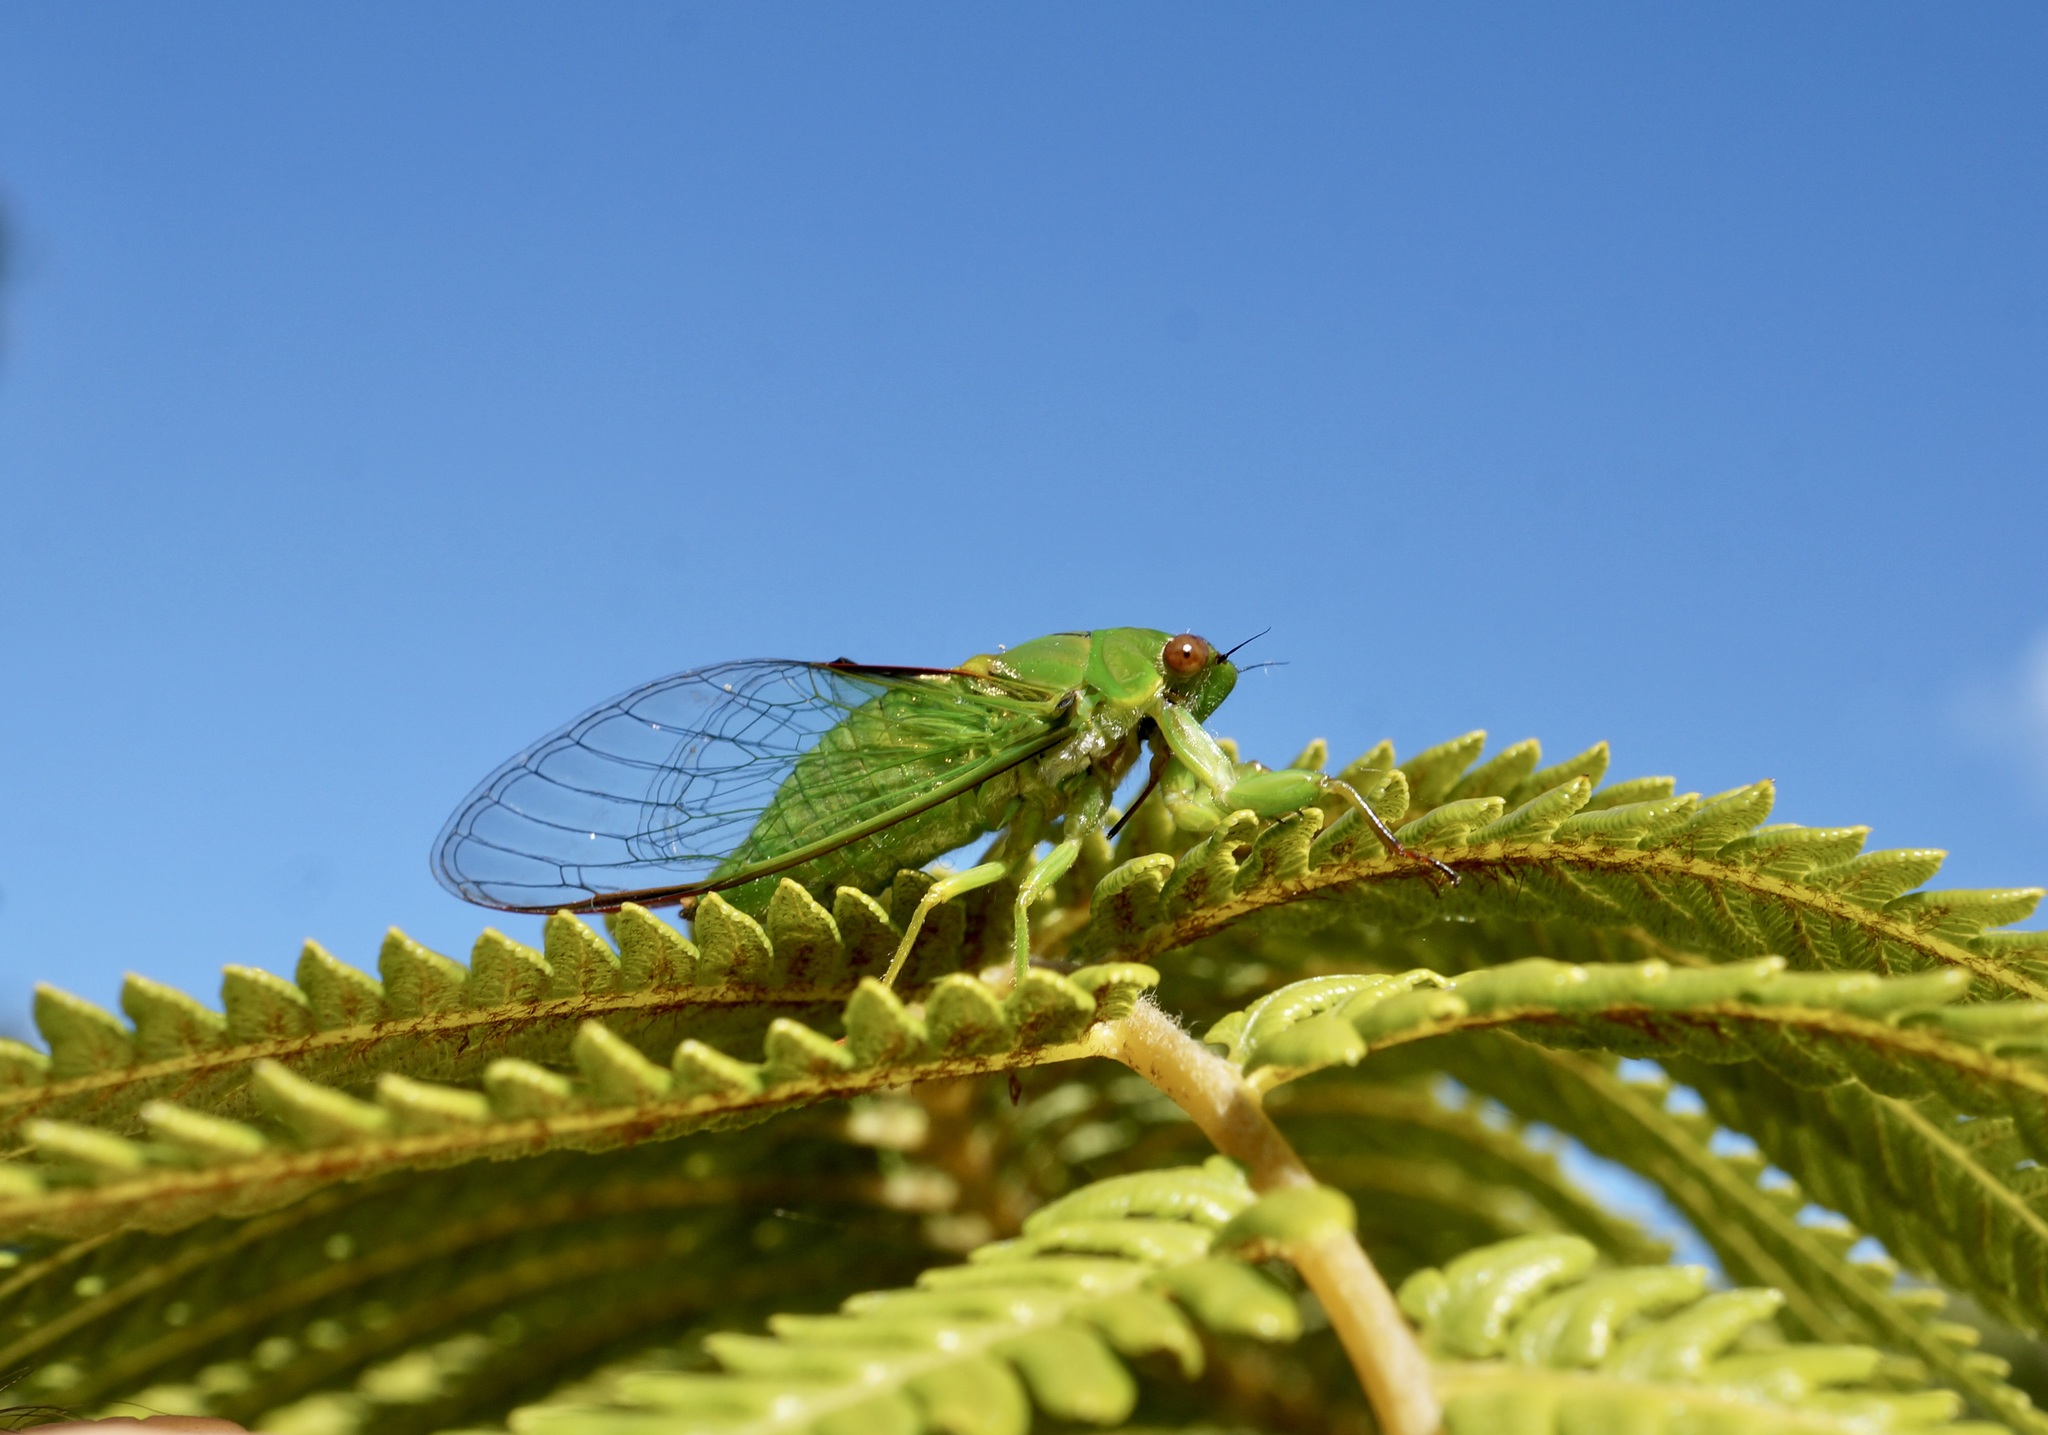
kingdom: Animalia
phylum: Arthropoda
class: Insecta
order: Hemiptera
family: Cicadidae
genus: Kikihia
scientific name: Kikihia ochrina
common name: April green cicada
